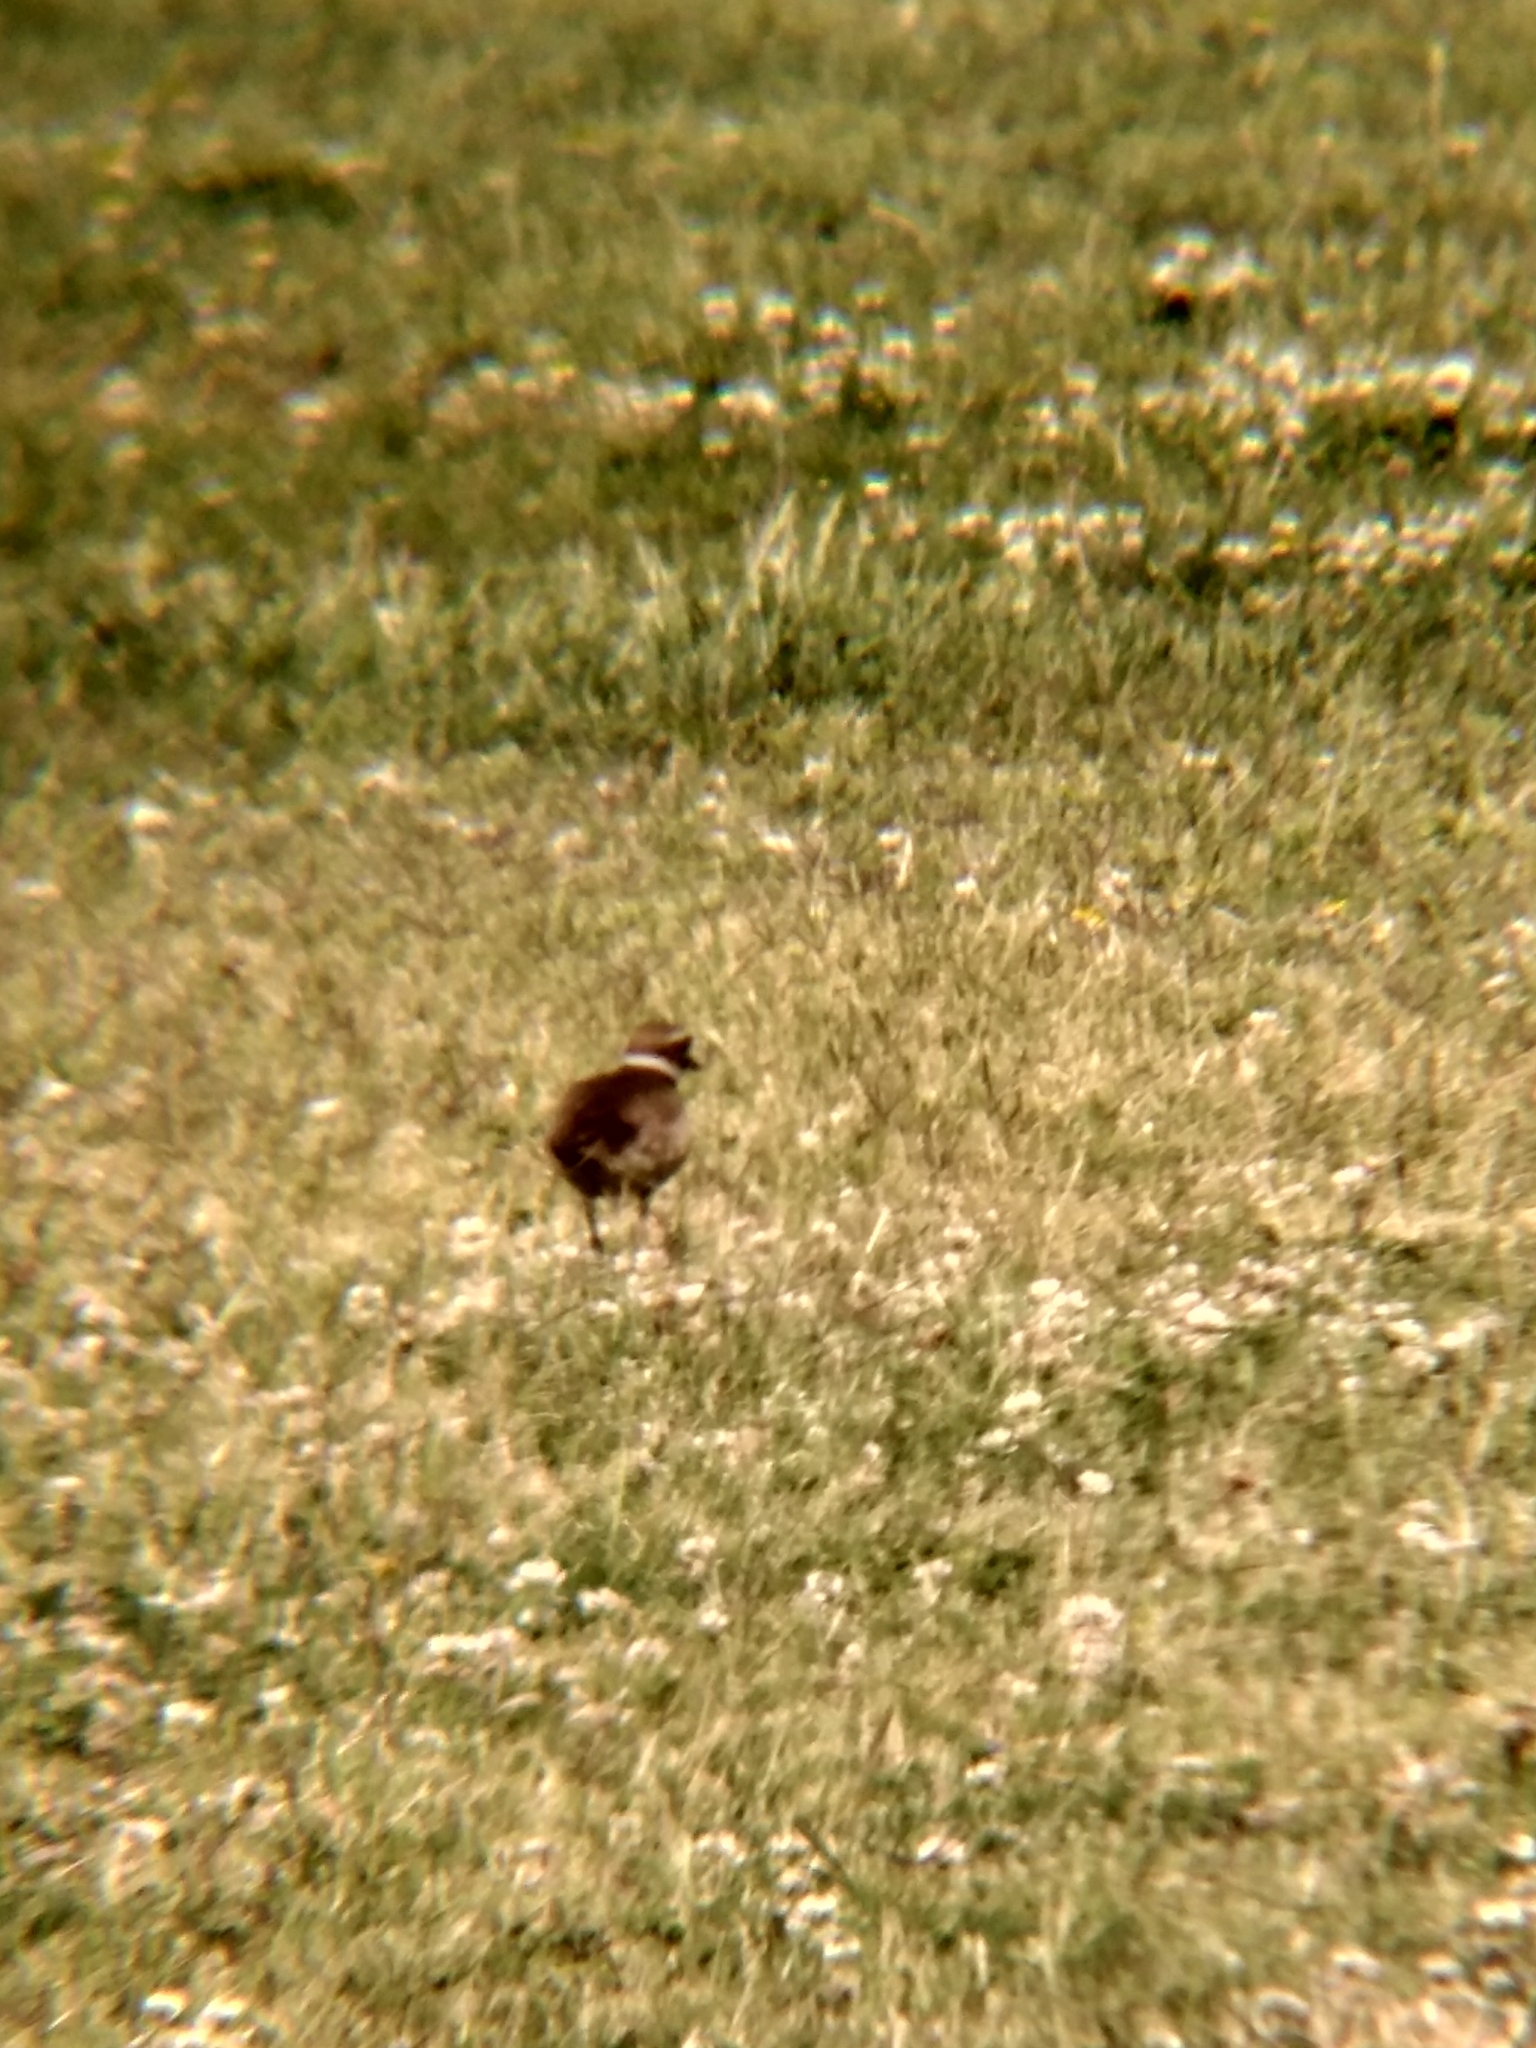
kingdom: Animalia
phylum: Chordata
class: Aves
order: Charadriiformes
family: Charadriidae
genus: Charadrius
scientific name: Charadrius vociferus
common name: Killdeer
